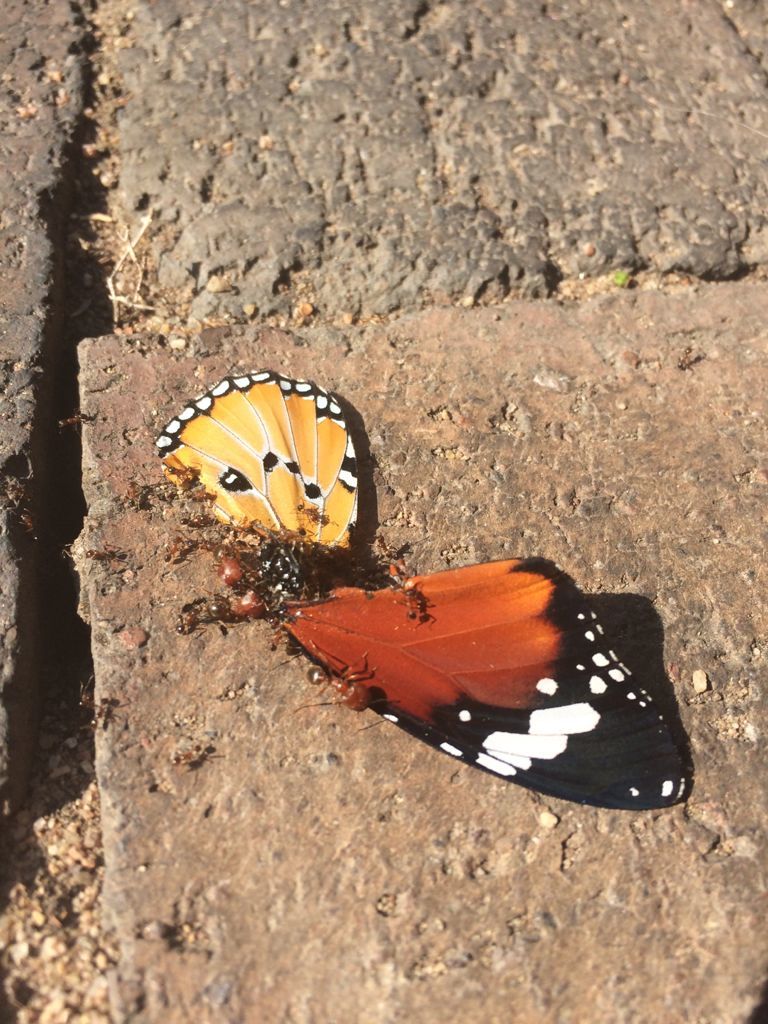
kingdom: Animalia
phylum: Arthropoda
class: Insecta
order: Lepidoptera
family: Nymphalidae
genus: Danaus
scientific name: Danaus chrysippus
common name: Plain tiger
